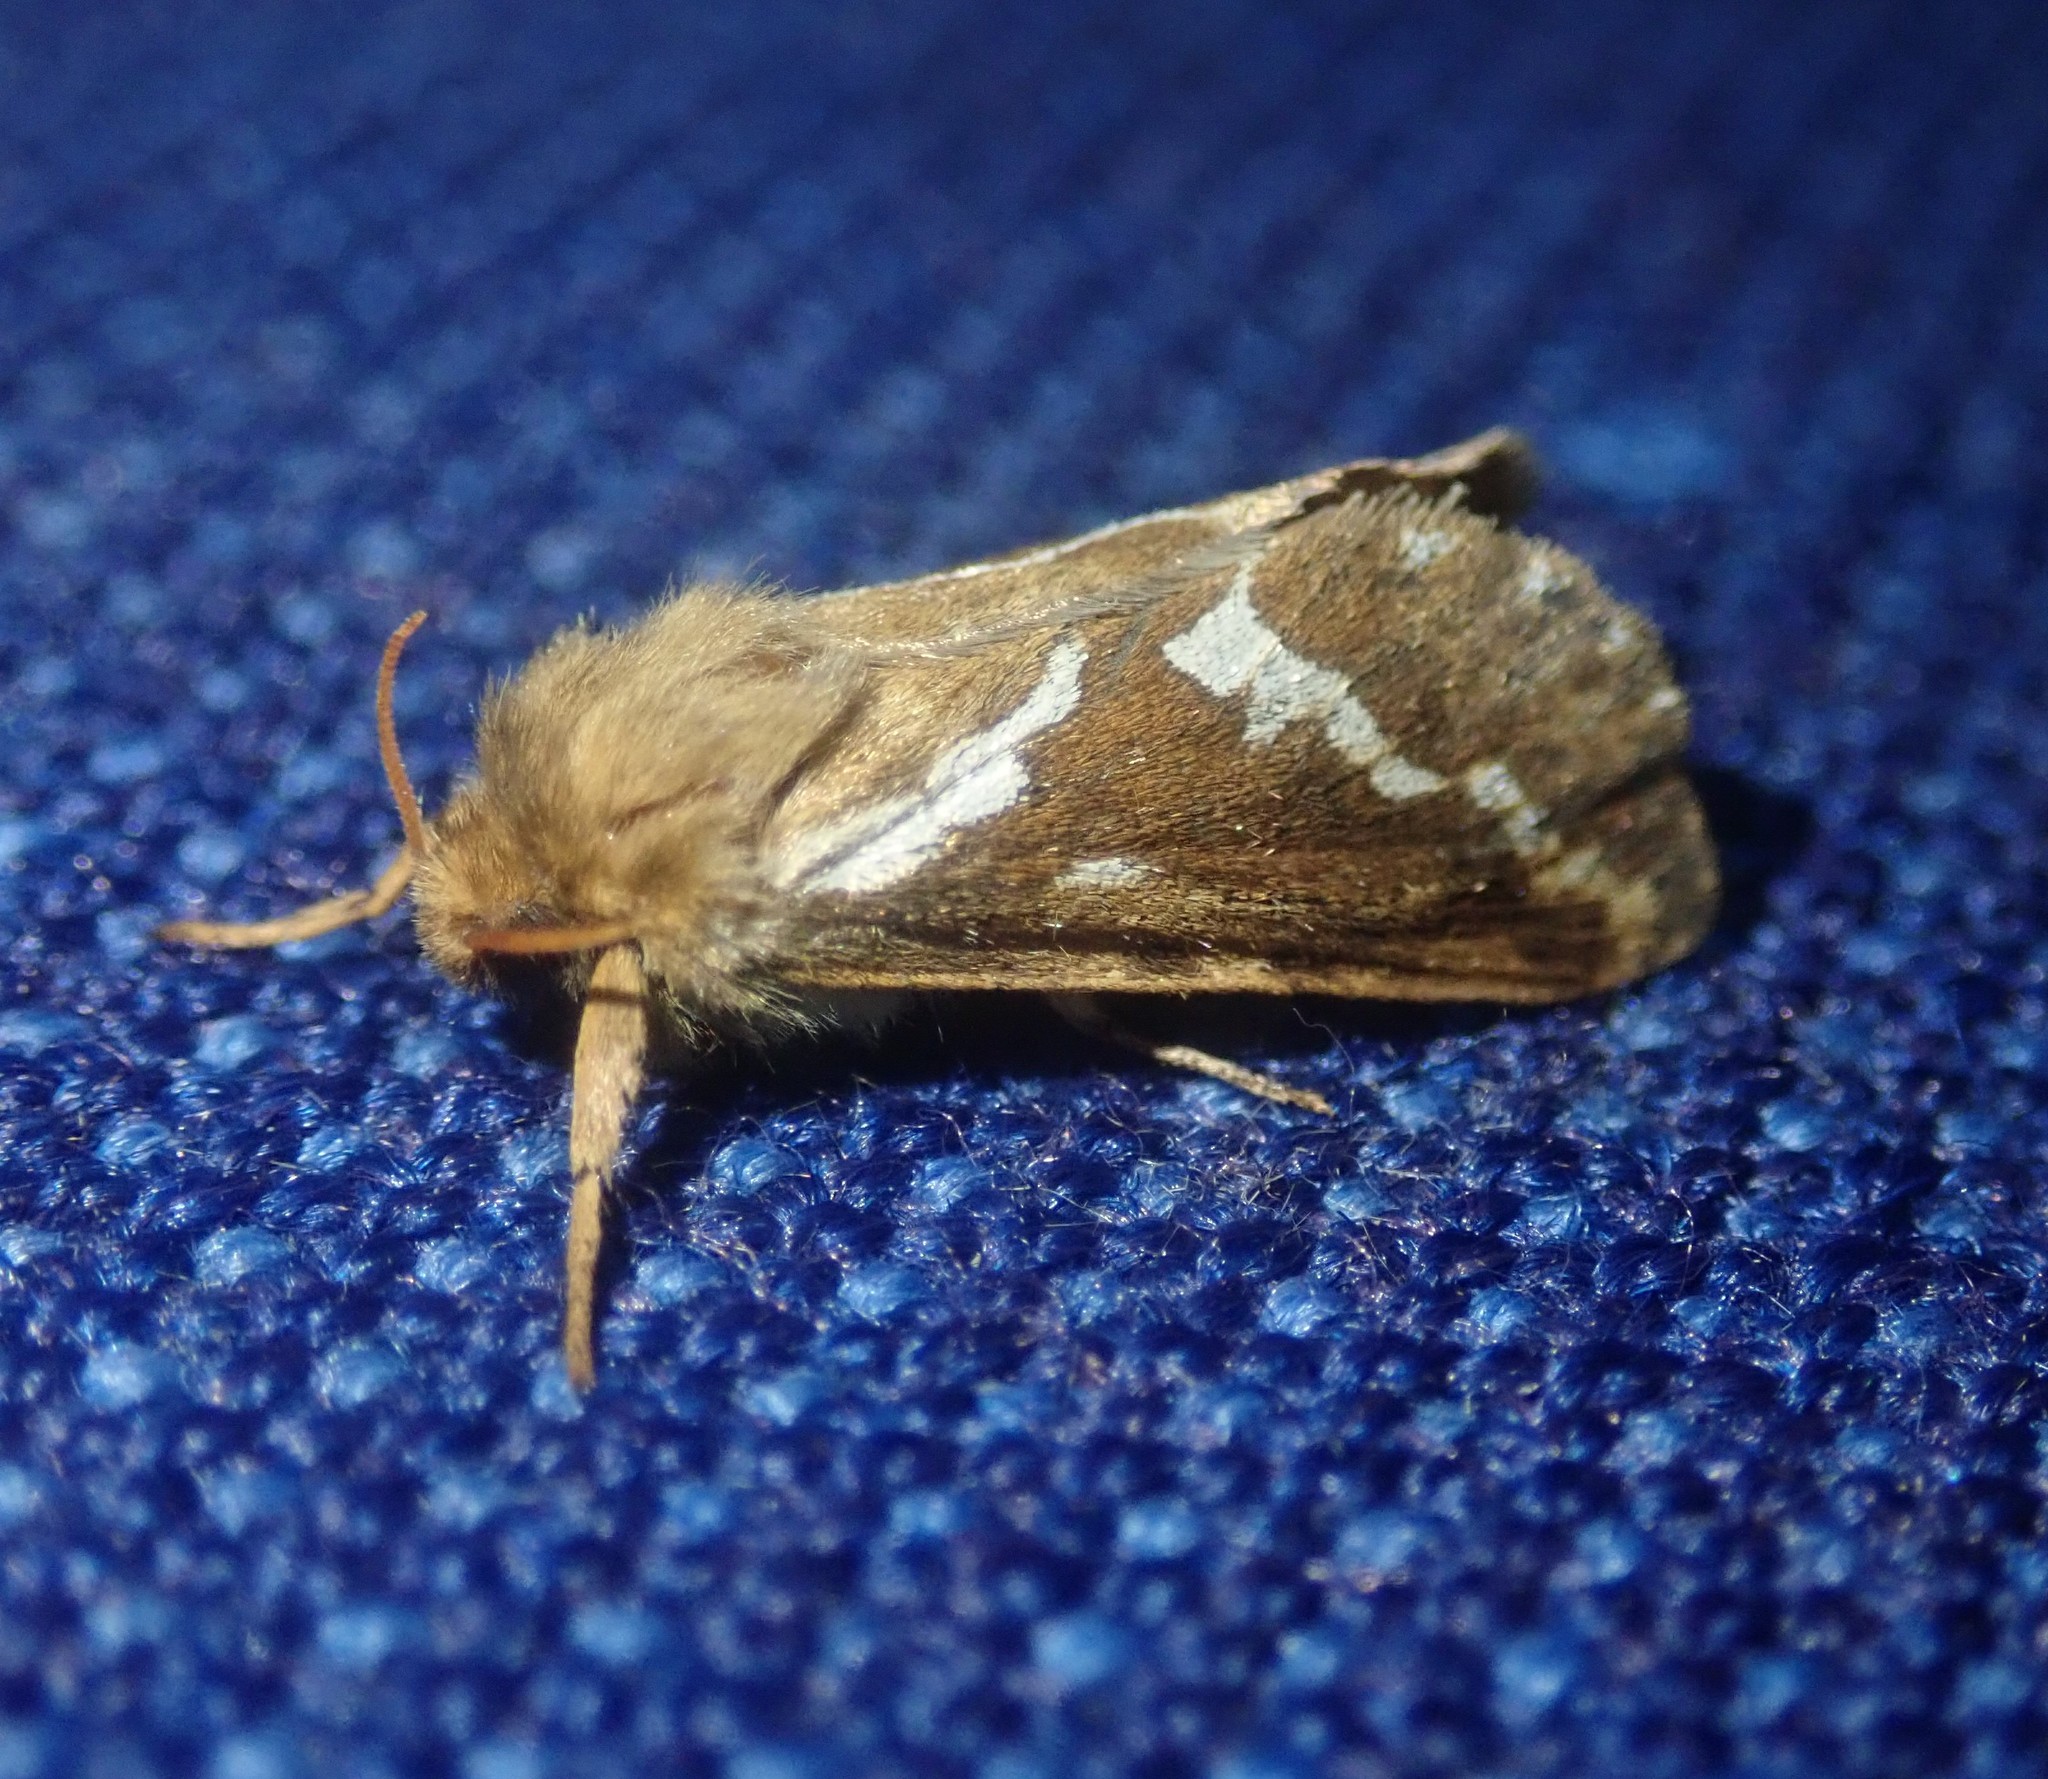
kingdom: Animalia
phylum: Arthropoda
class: Insecta
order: Lepidoptera
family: Hepialidae
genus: Korscheltellus
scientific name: Korscheltellus lupulina
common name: Common swift
